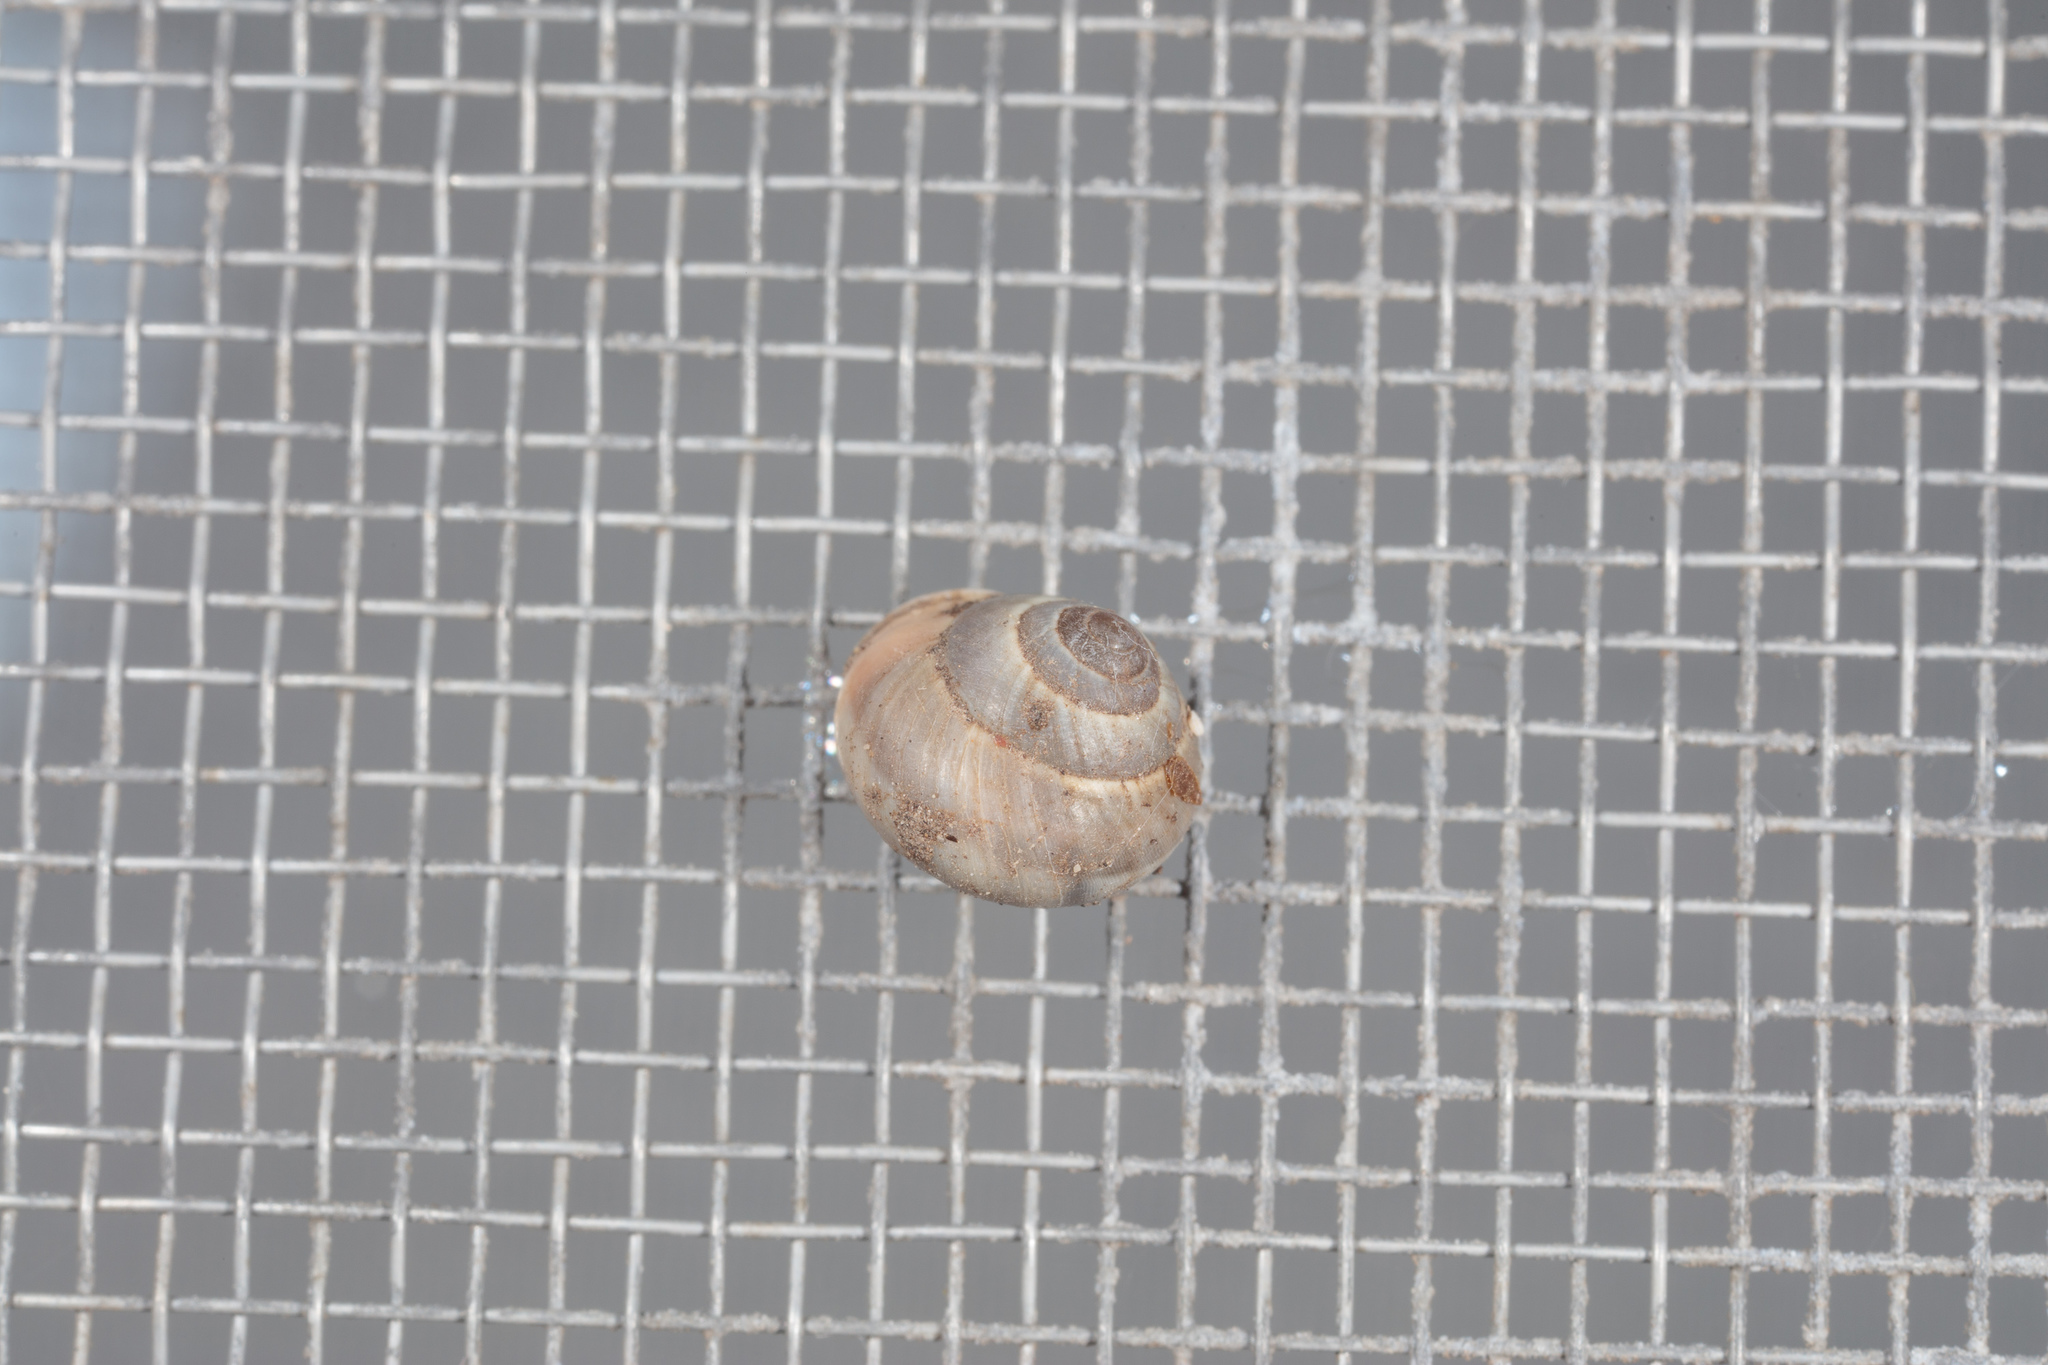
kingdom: Animalia
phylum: Mollusca
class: Gastropoda
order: Cycloneritida
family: Helicinidae
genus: Helicina
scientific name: Helicina orbiculata
